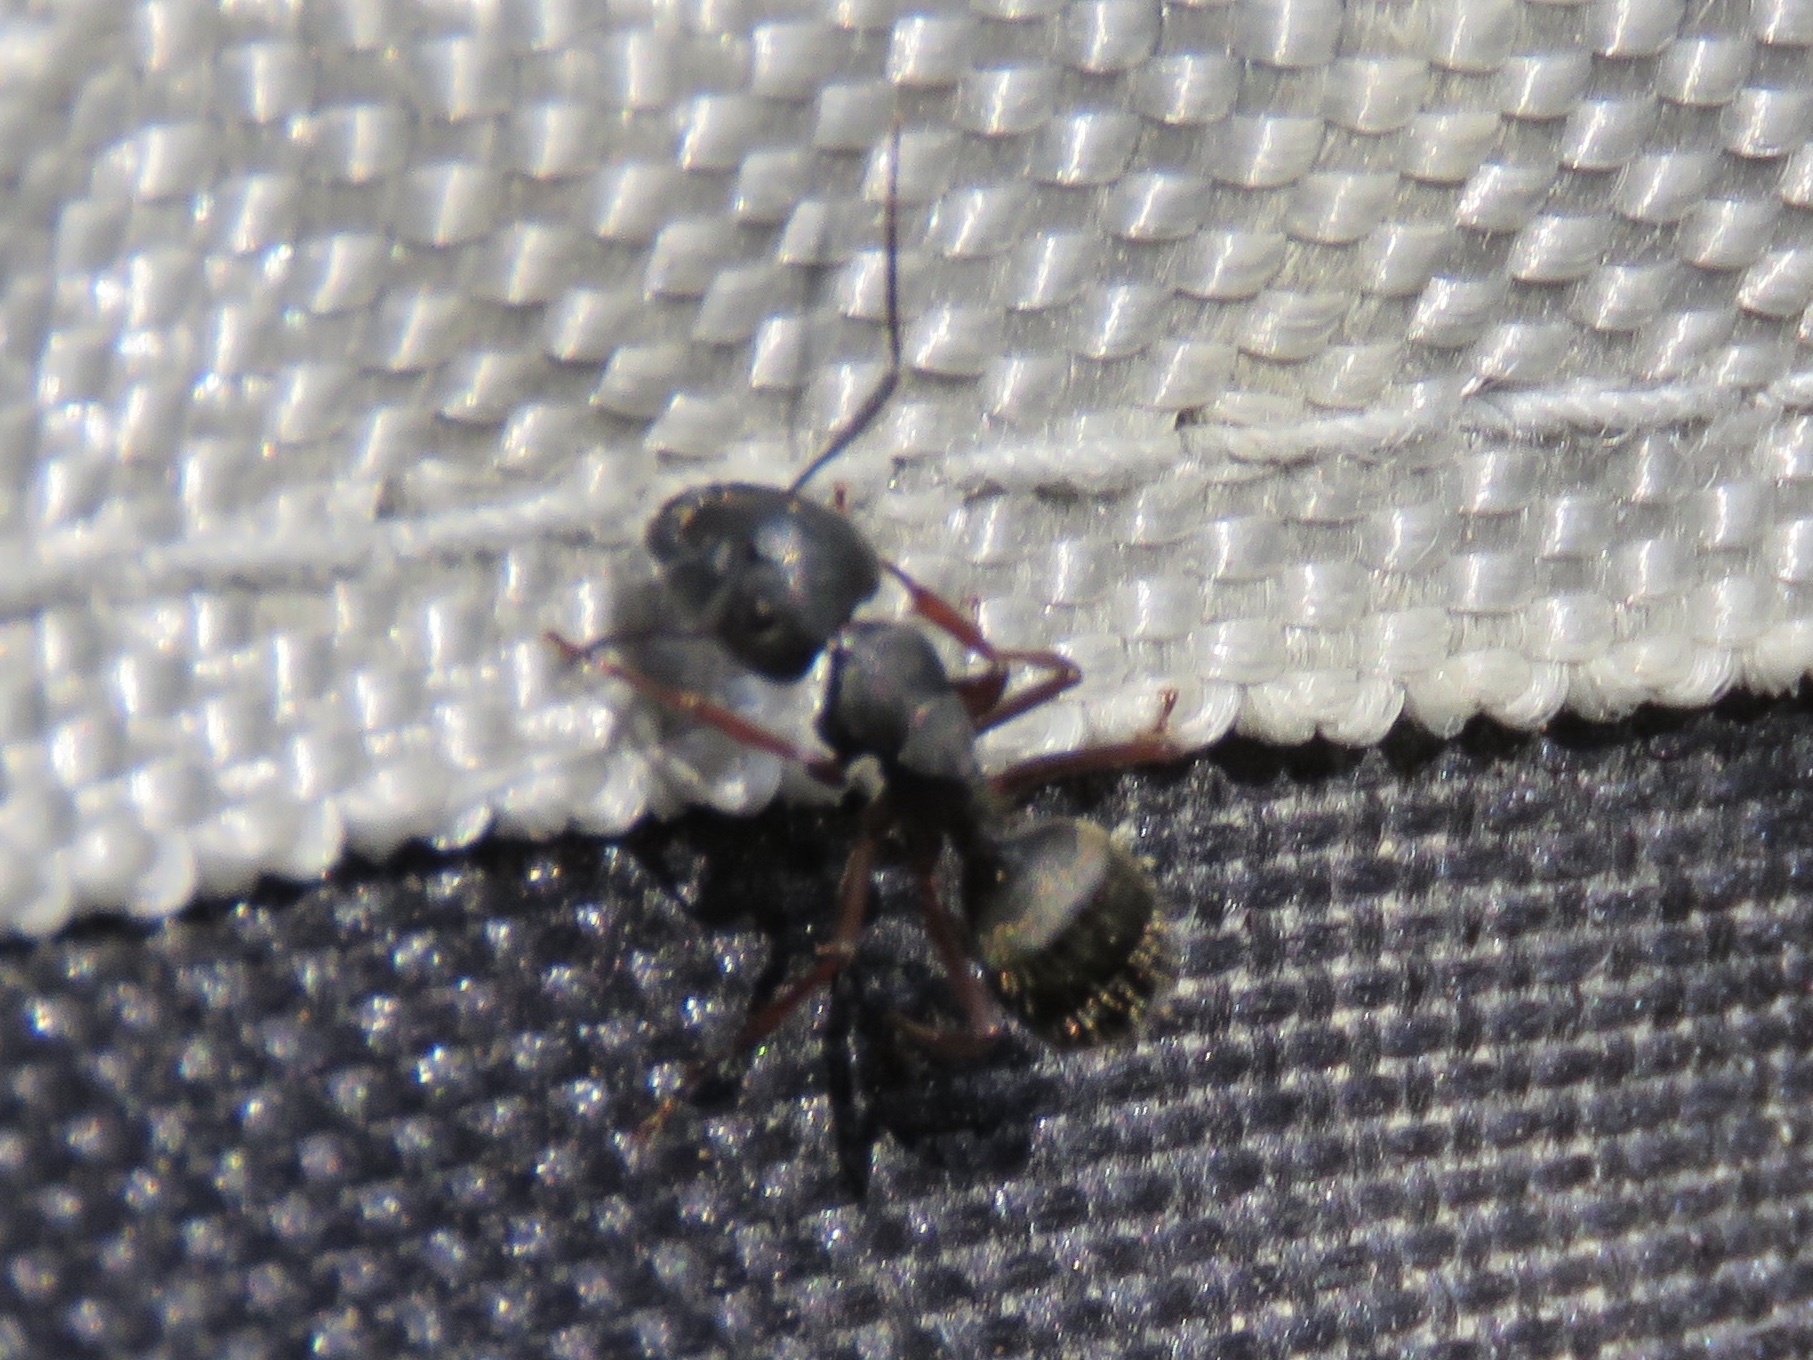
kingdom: Animalia
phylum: Arthropoda
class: Insecta
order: Hymenoptera
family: Formicidae
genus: Camponotus
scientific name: Camponotus modoc
